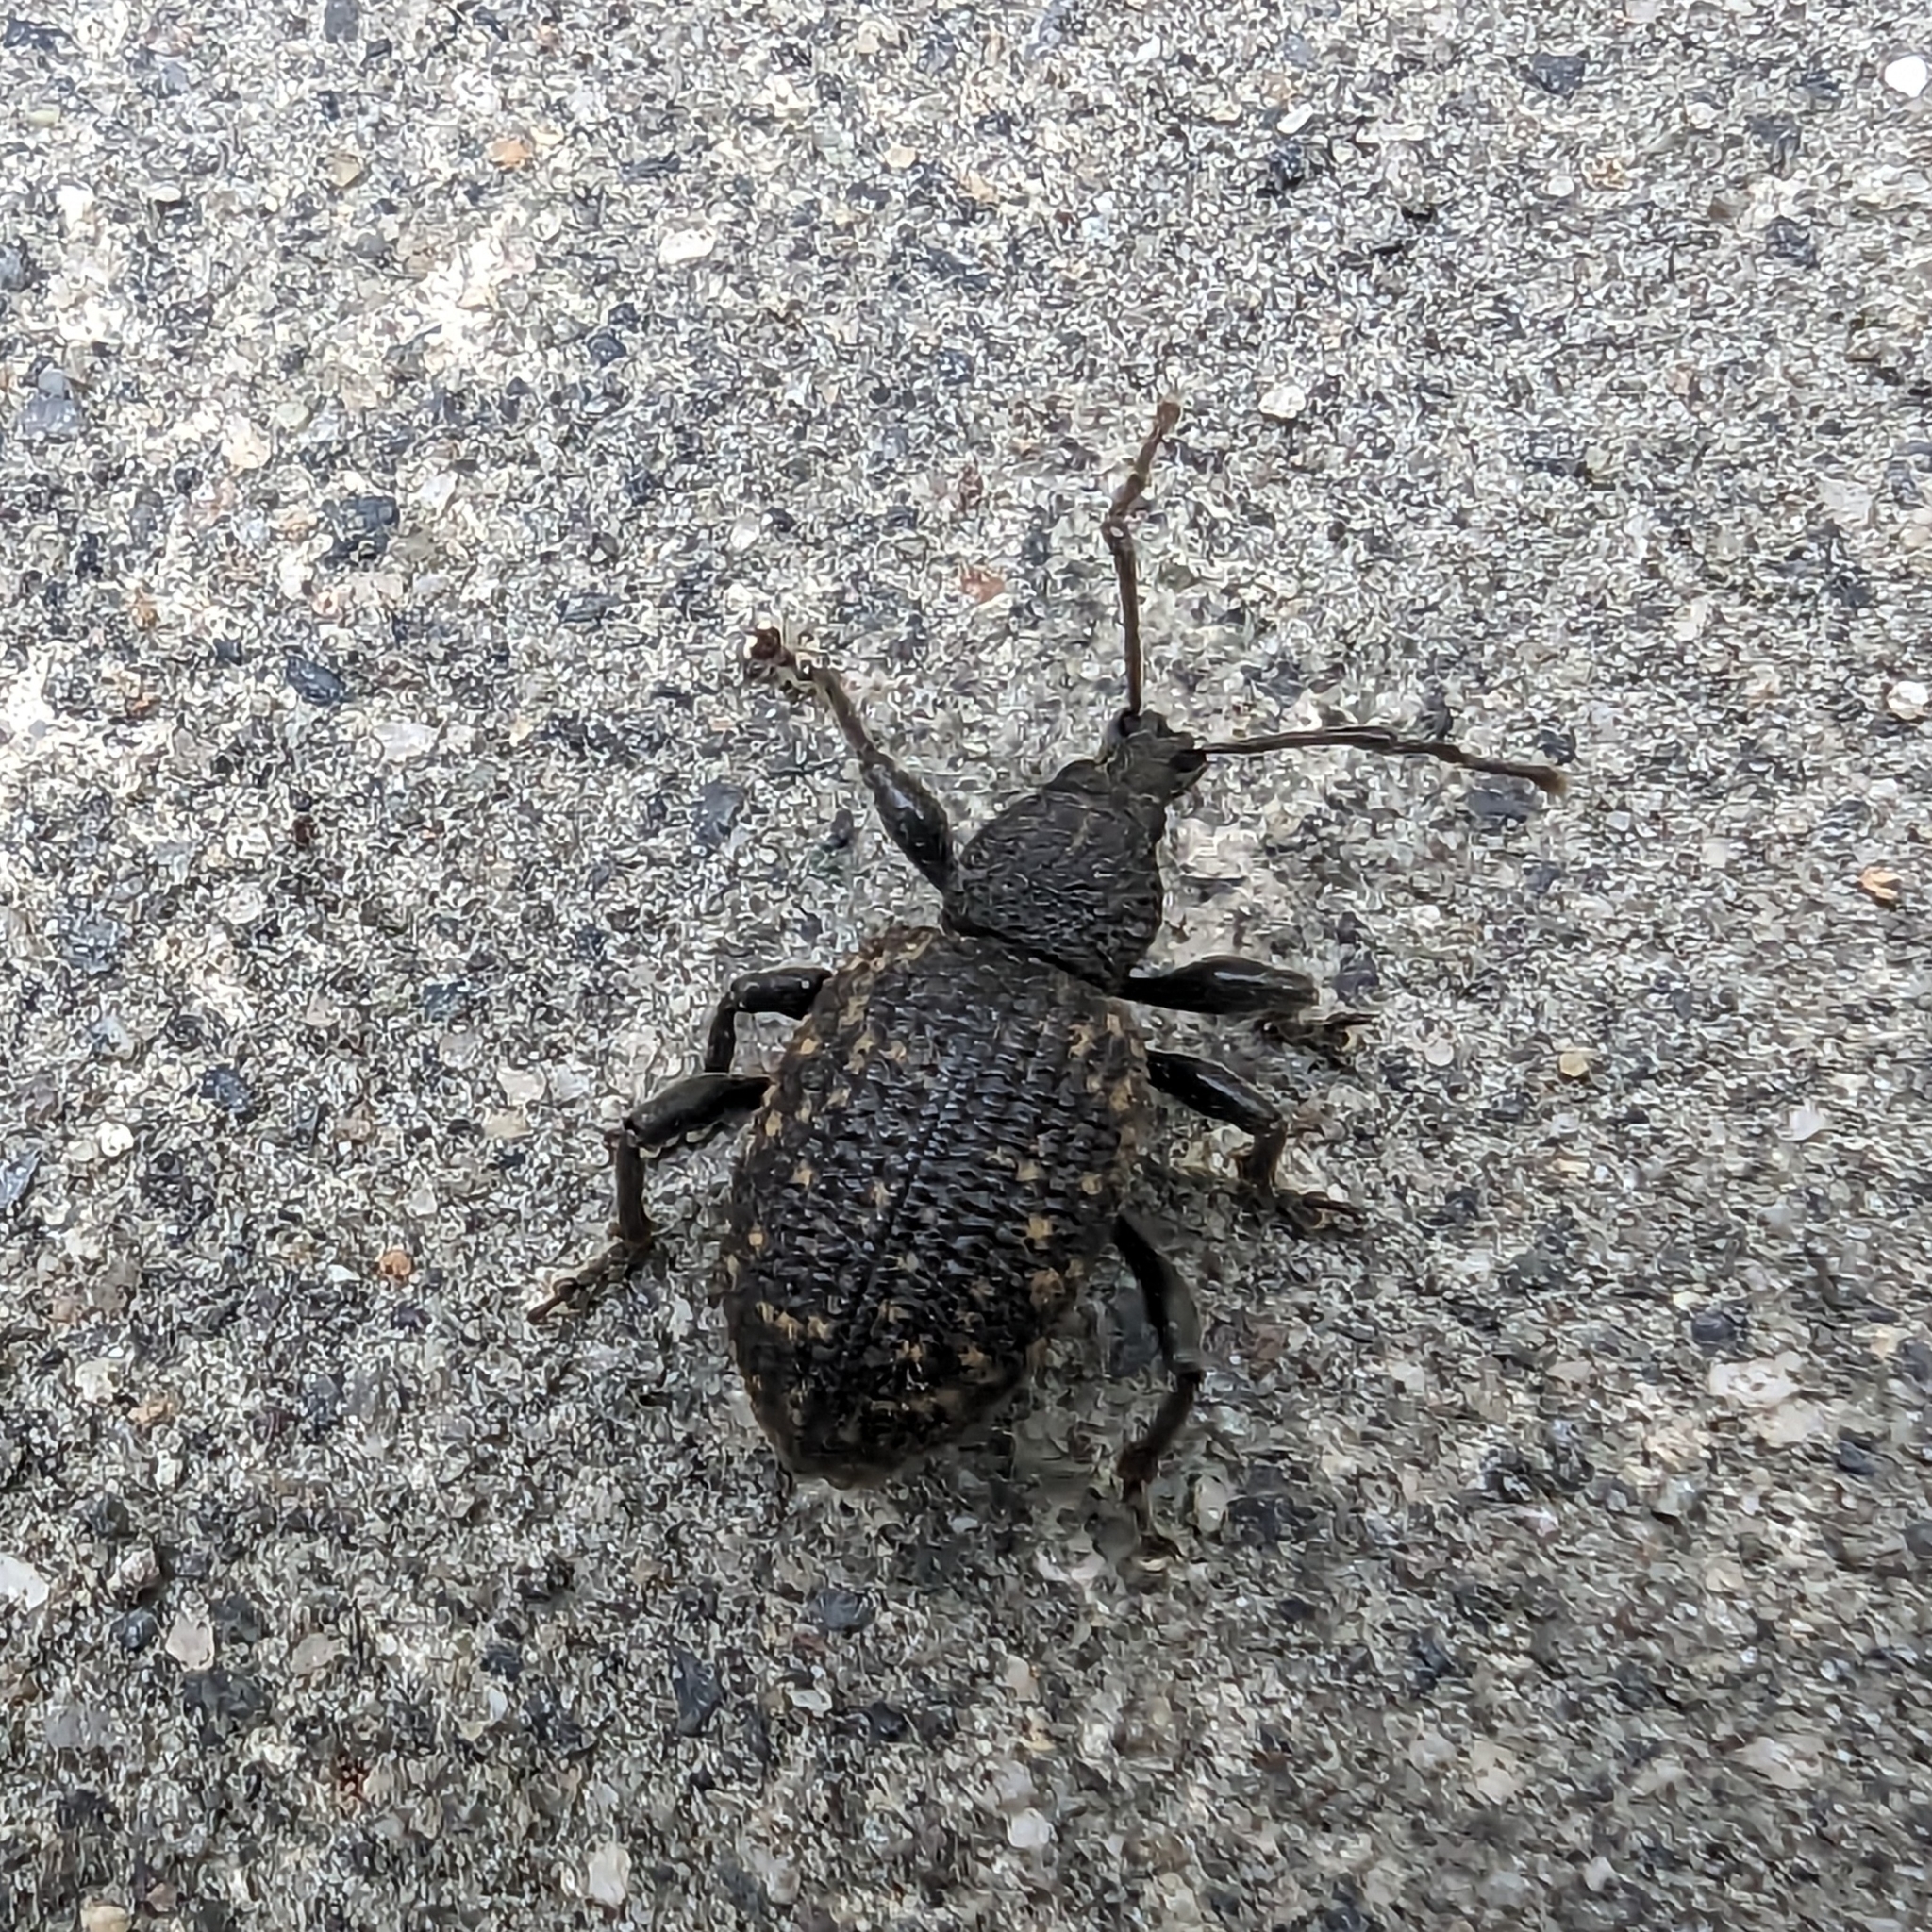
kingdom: Animalia
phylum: Arthropoda
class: Insecta
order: Coleoptera
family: Curculionidae
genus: Otiorhynchus
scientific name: Otiorhynchus sulcatus
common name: Black vine weevil
